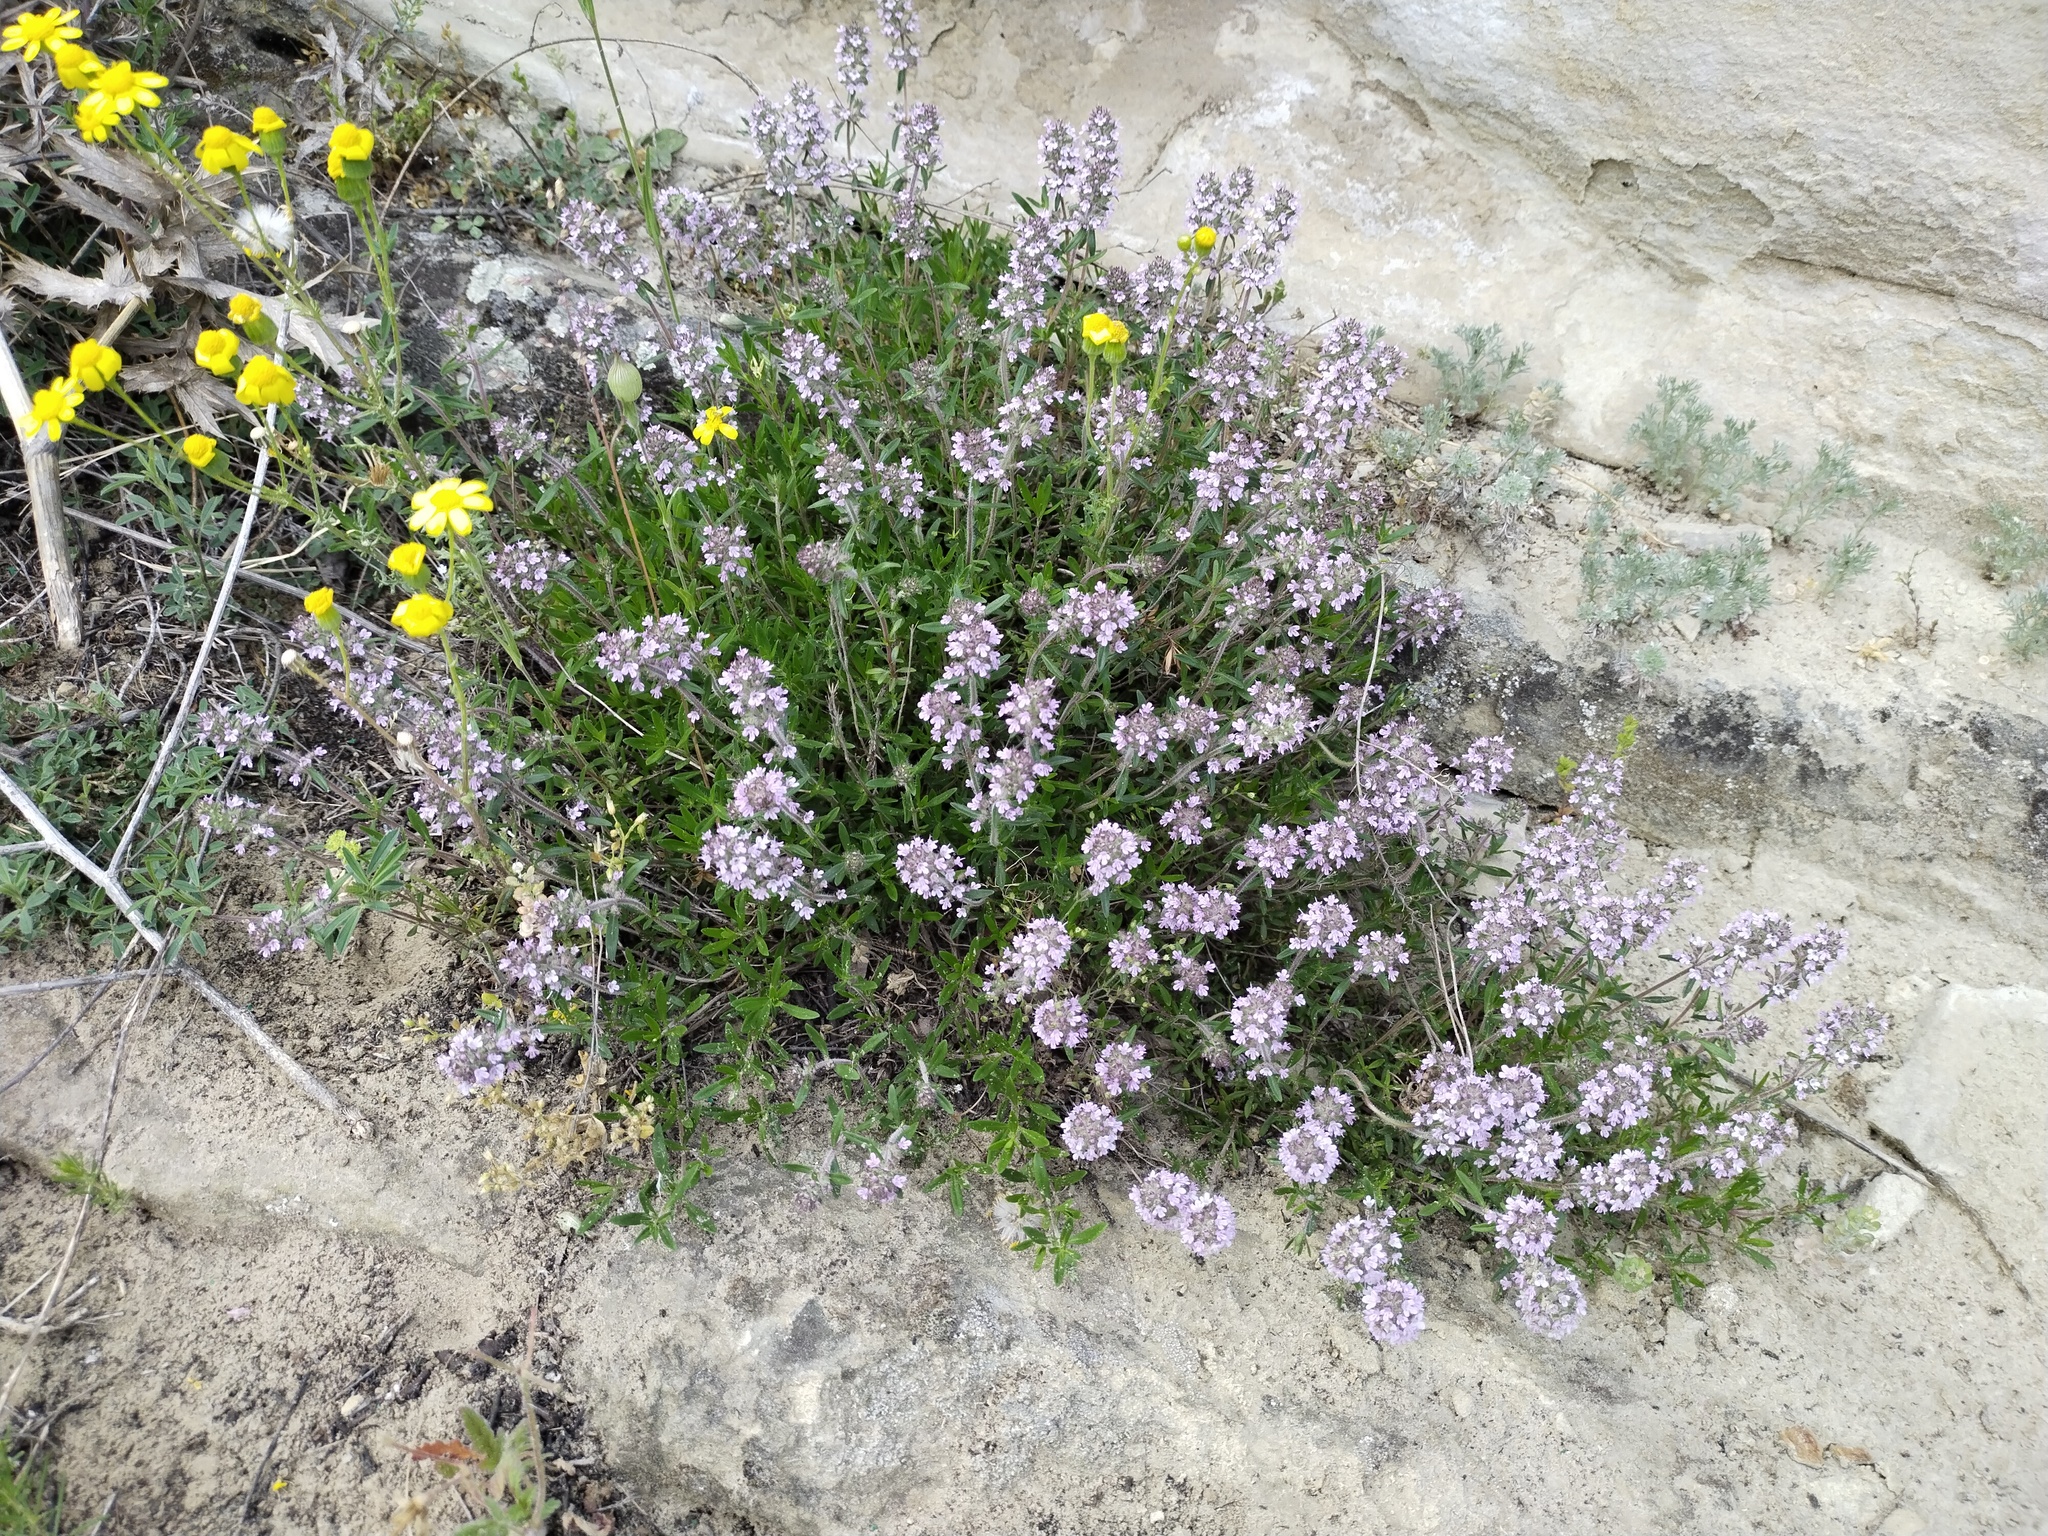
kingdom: Plantae
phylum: Tracheophyta
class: Magnoliopsida
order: Lamiales
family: Lamiaceae
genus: Thymus
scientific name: Thymus pannonicus
